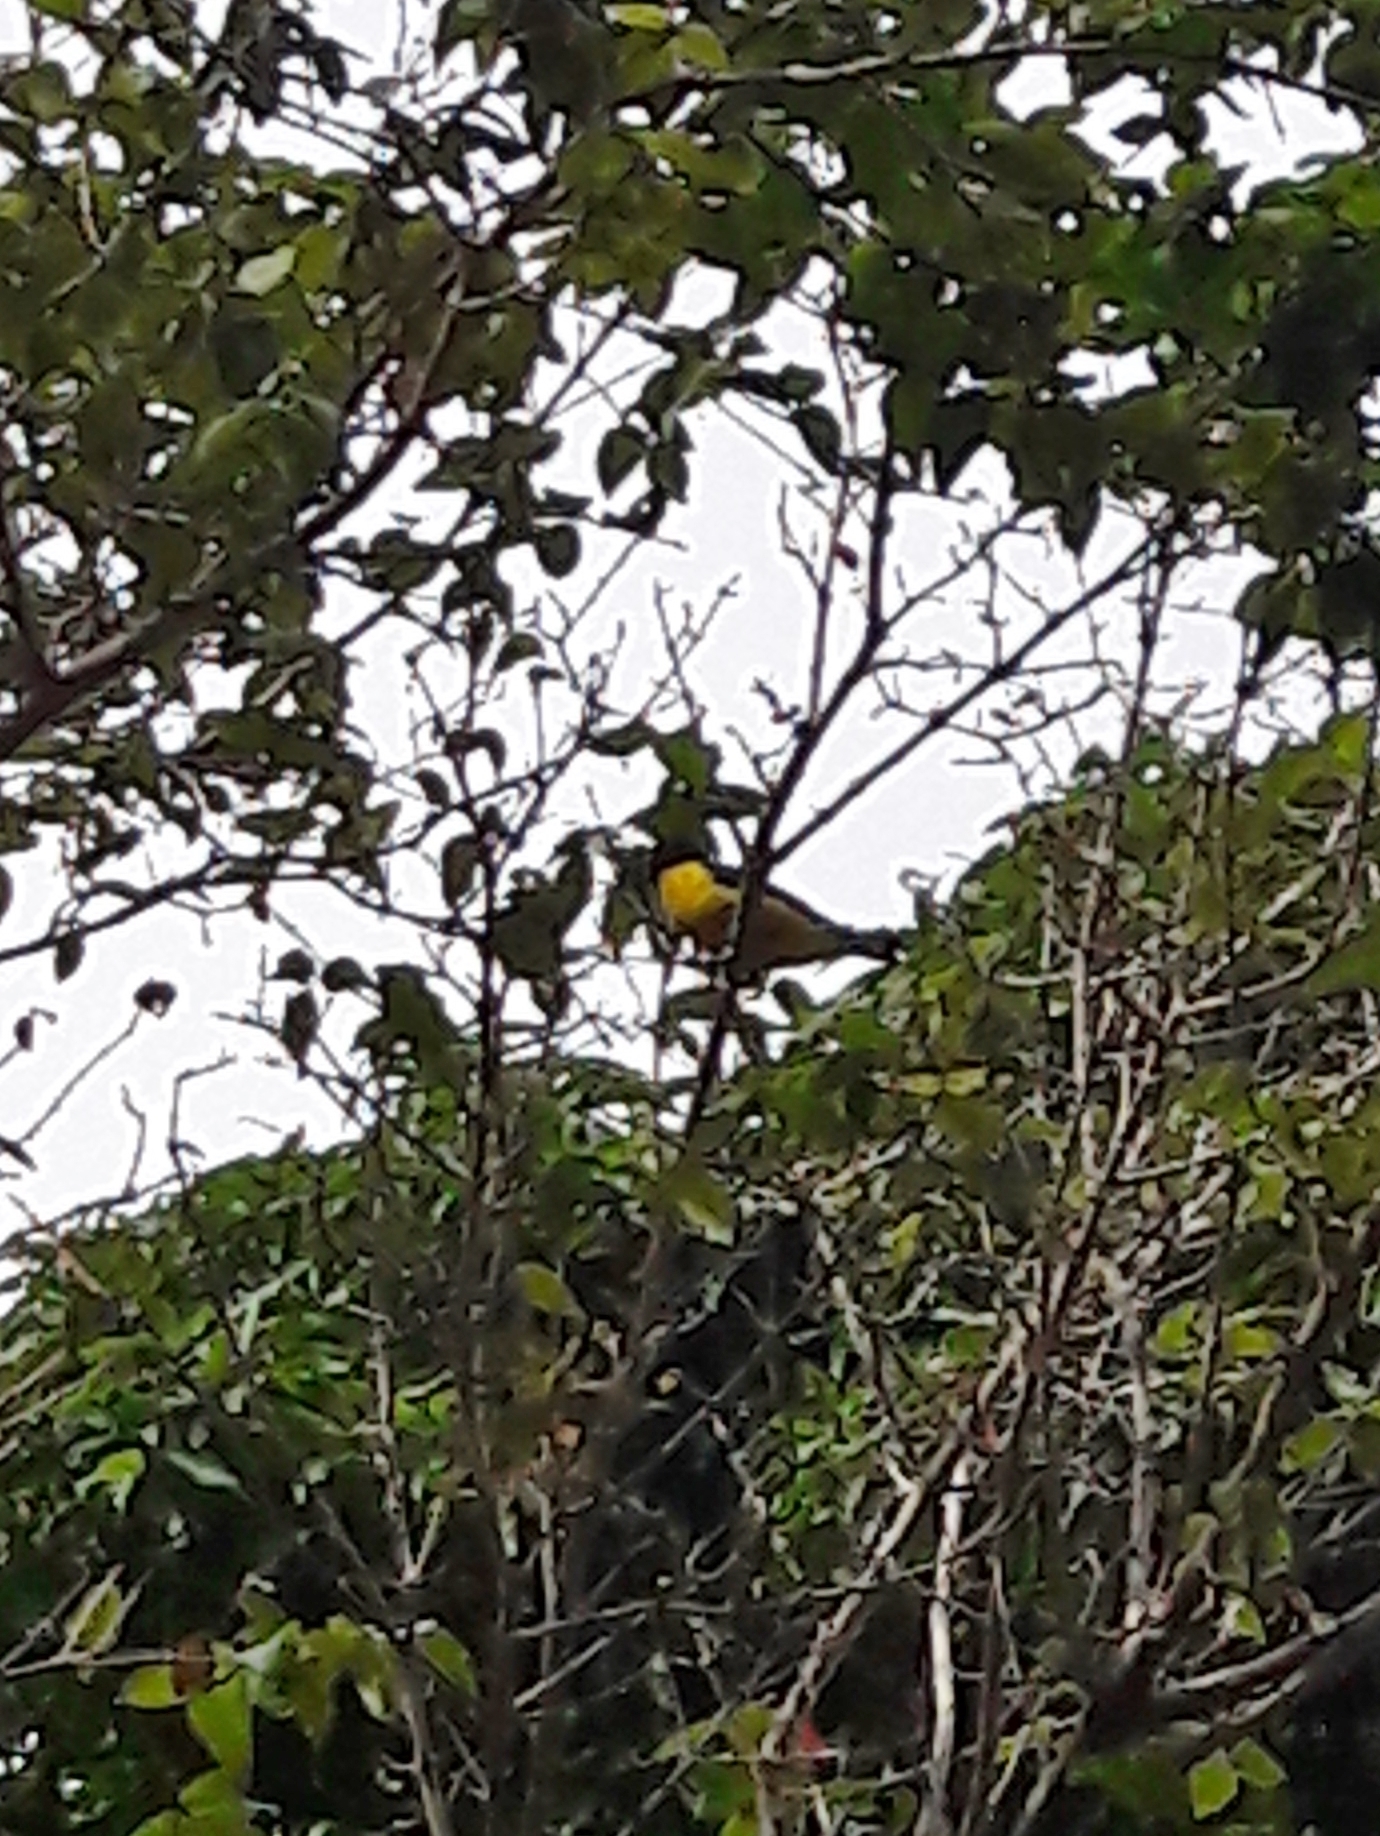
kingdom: Animalia
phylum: Chordata
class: Aves
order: Passeriformes
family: Fringillidae
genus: Euphonia
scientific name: Euphonia chlorotica
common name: Purple-throated euphonia
